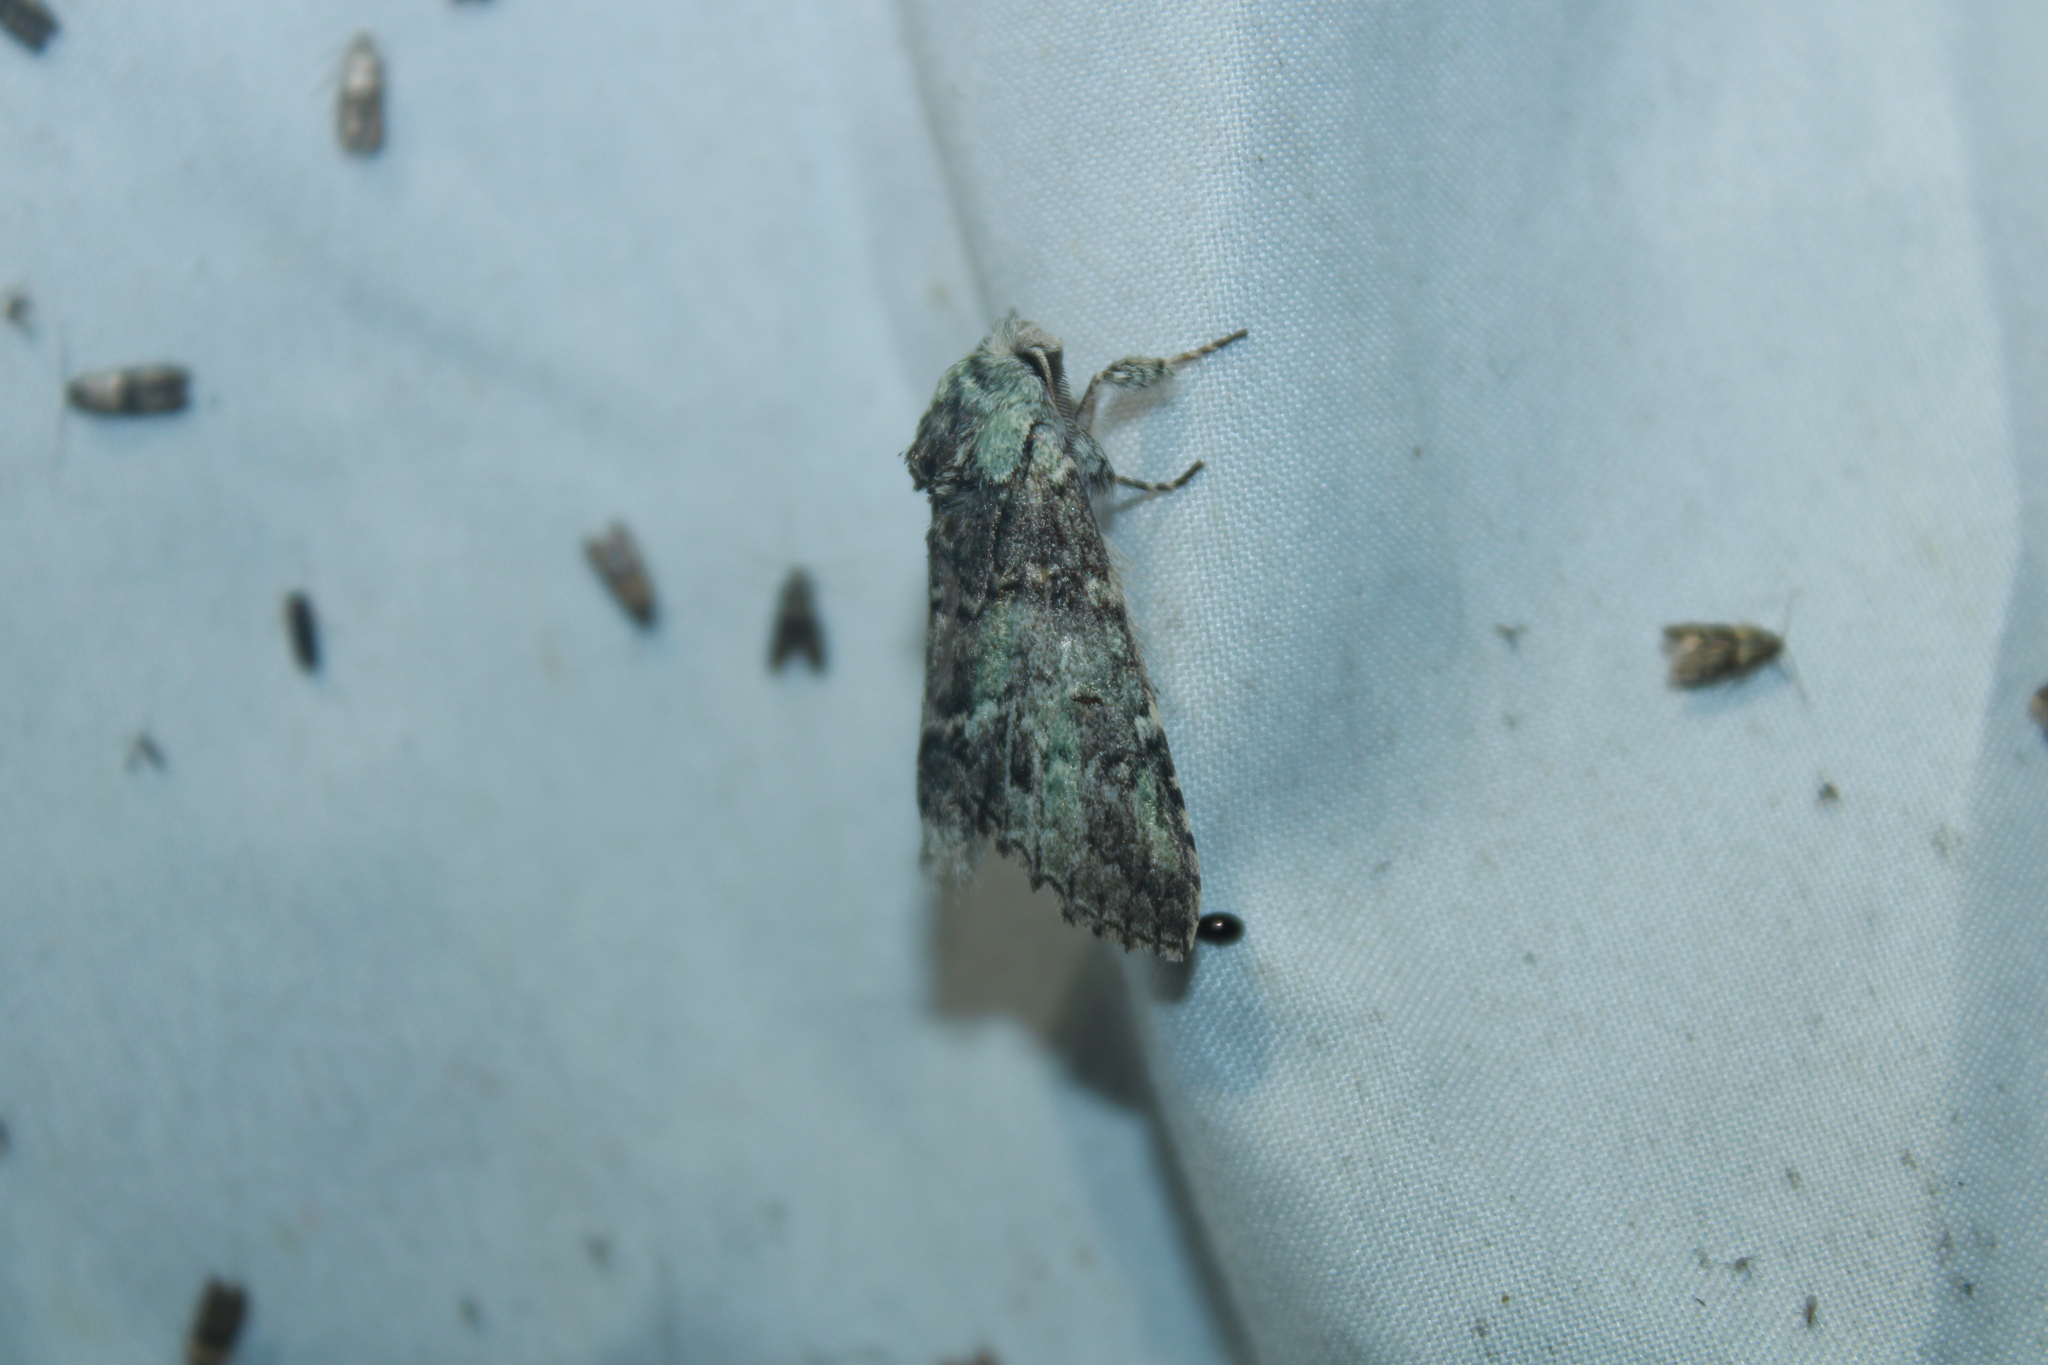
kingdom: Animalia
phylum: Arthropoda
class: Insecta
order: Lepidoptera
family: Notodontidae
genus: Macrurocampa
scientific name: Macrurocampa marthesia
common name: Mottled prominent
